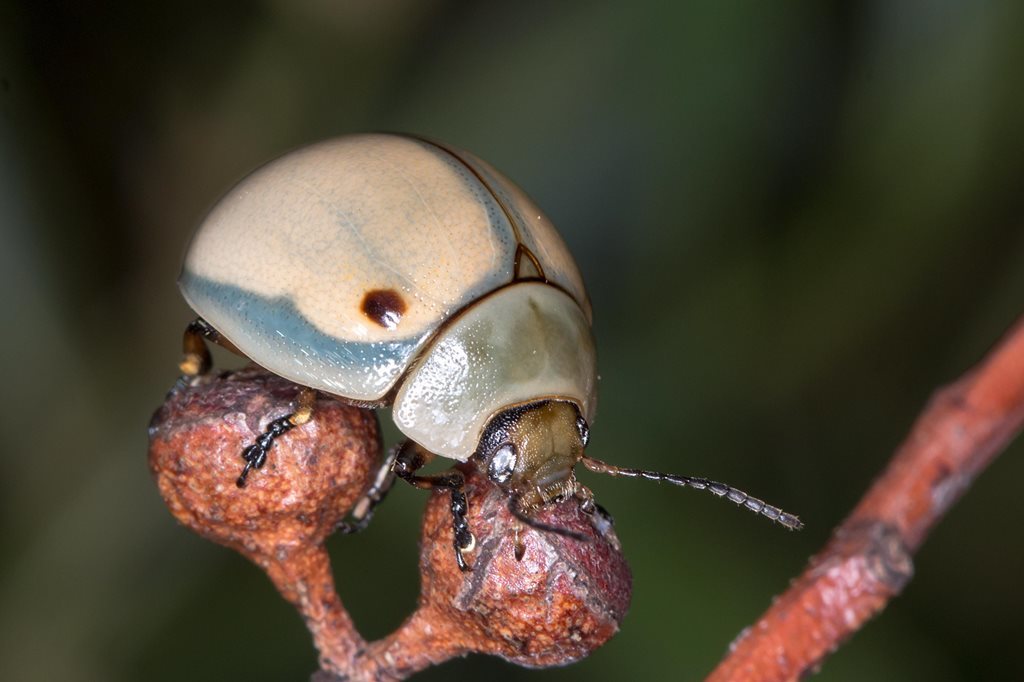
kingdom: Animalia
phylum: Arthropoda
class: Insecta
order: Coleoptera
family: Chrysomelidae
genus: Dicranosterna
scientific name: Dicranosterna
